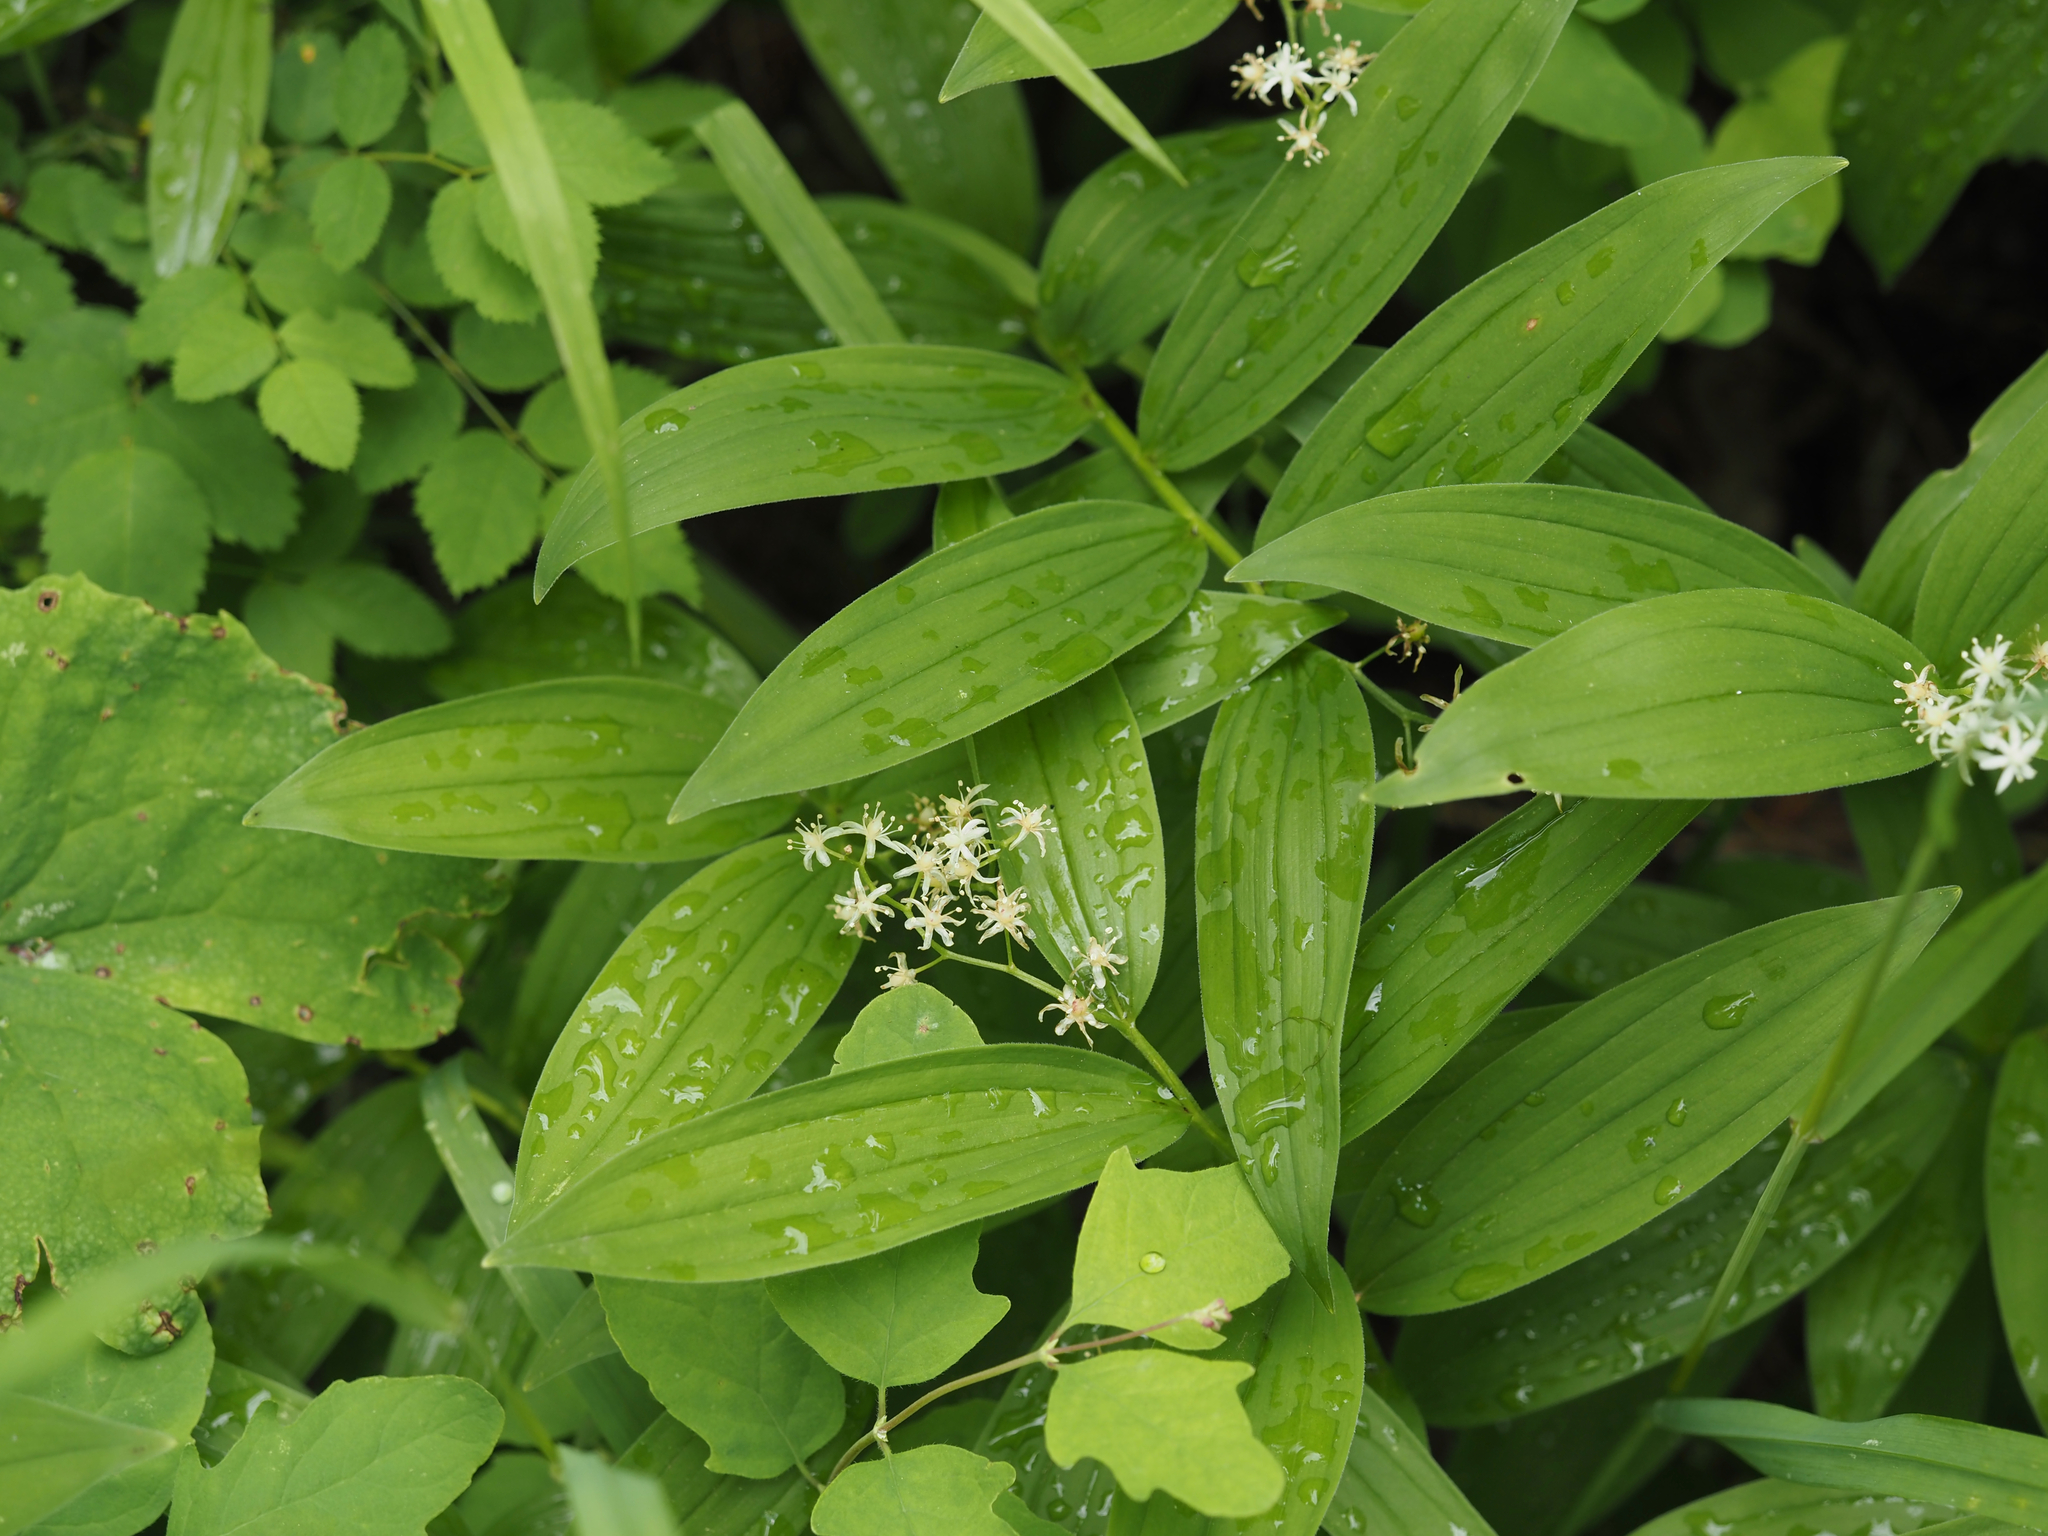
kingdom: Plantae
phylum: Tracheophyta
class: Liliopsida
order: Asparagales
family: Asparagaceae
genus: Maianthemum
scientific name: Maianthemum stellatum
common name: Little false solomon's seal
